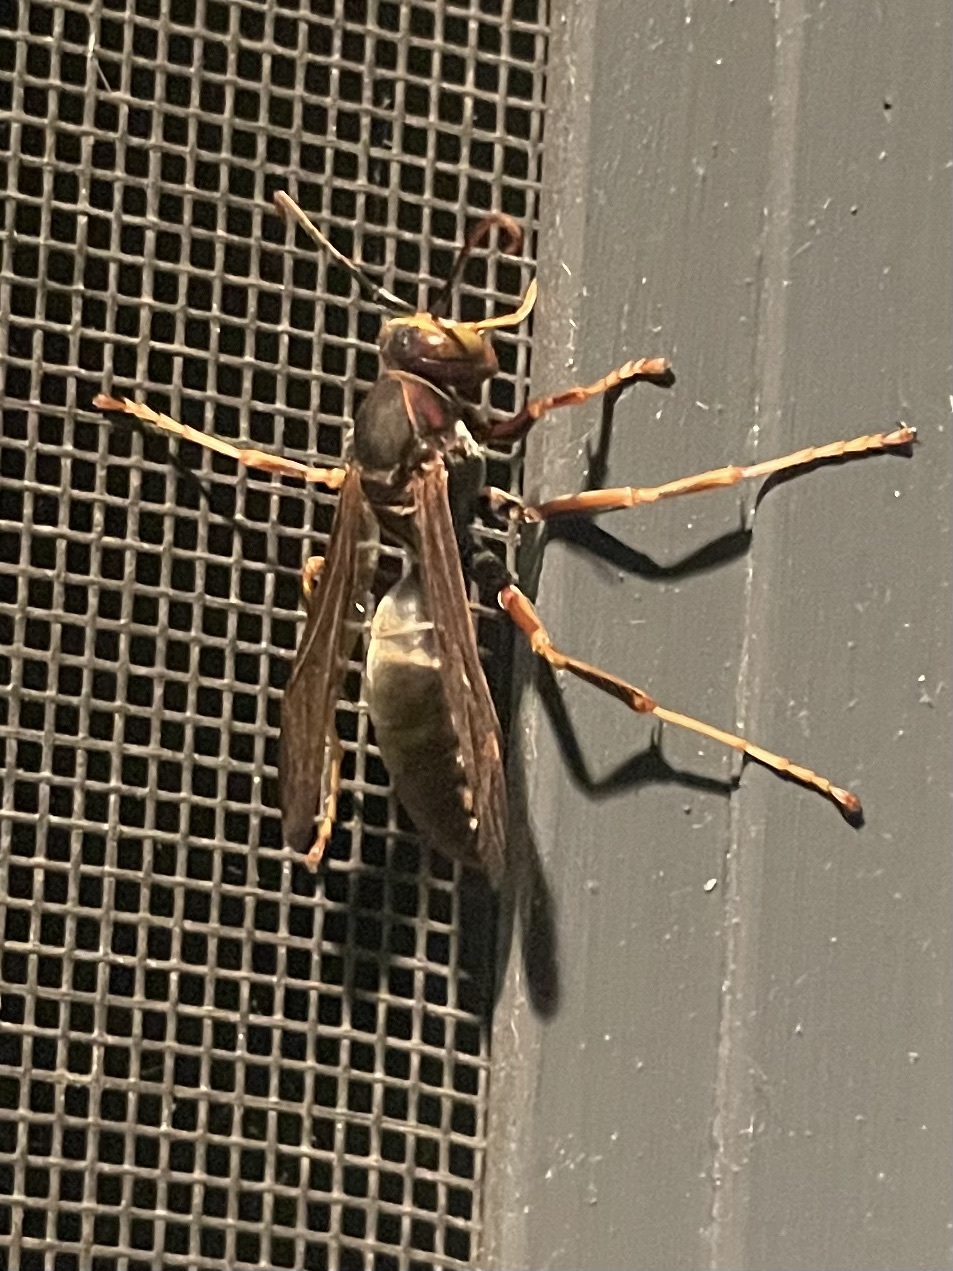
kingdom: Animalia
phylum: Arthropoda
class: Insecta
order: Hymenoptera
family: Eumenidae
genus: Polistes
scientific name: Polistes parametricus
